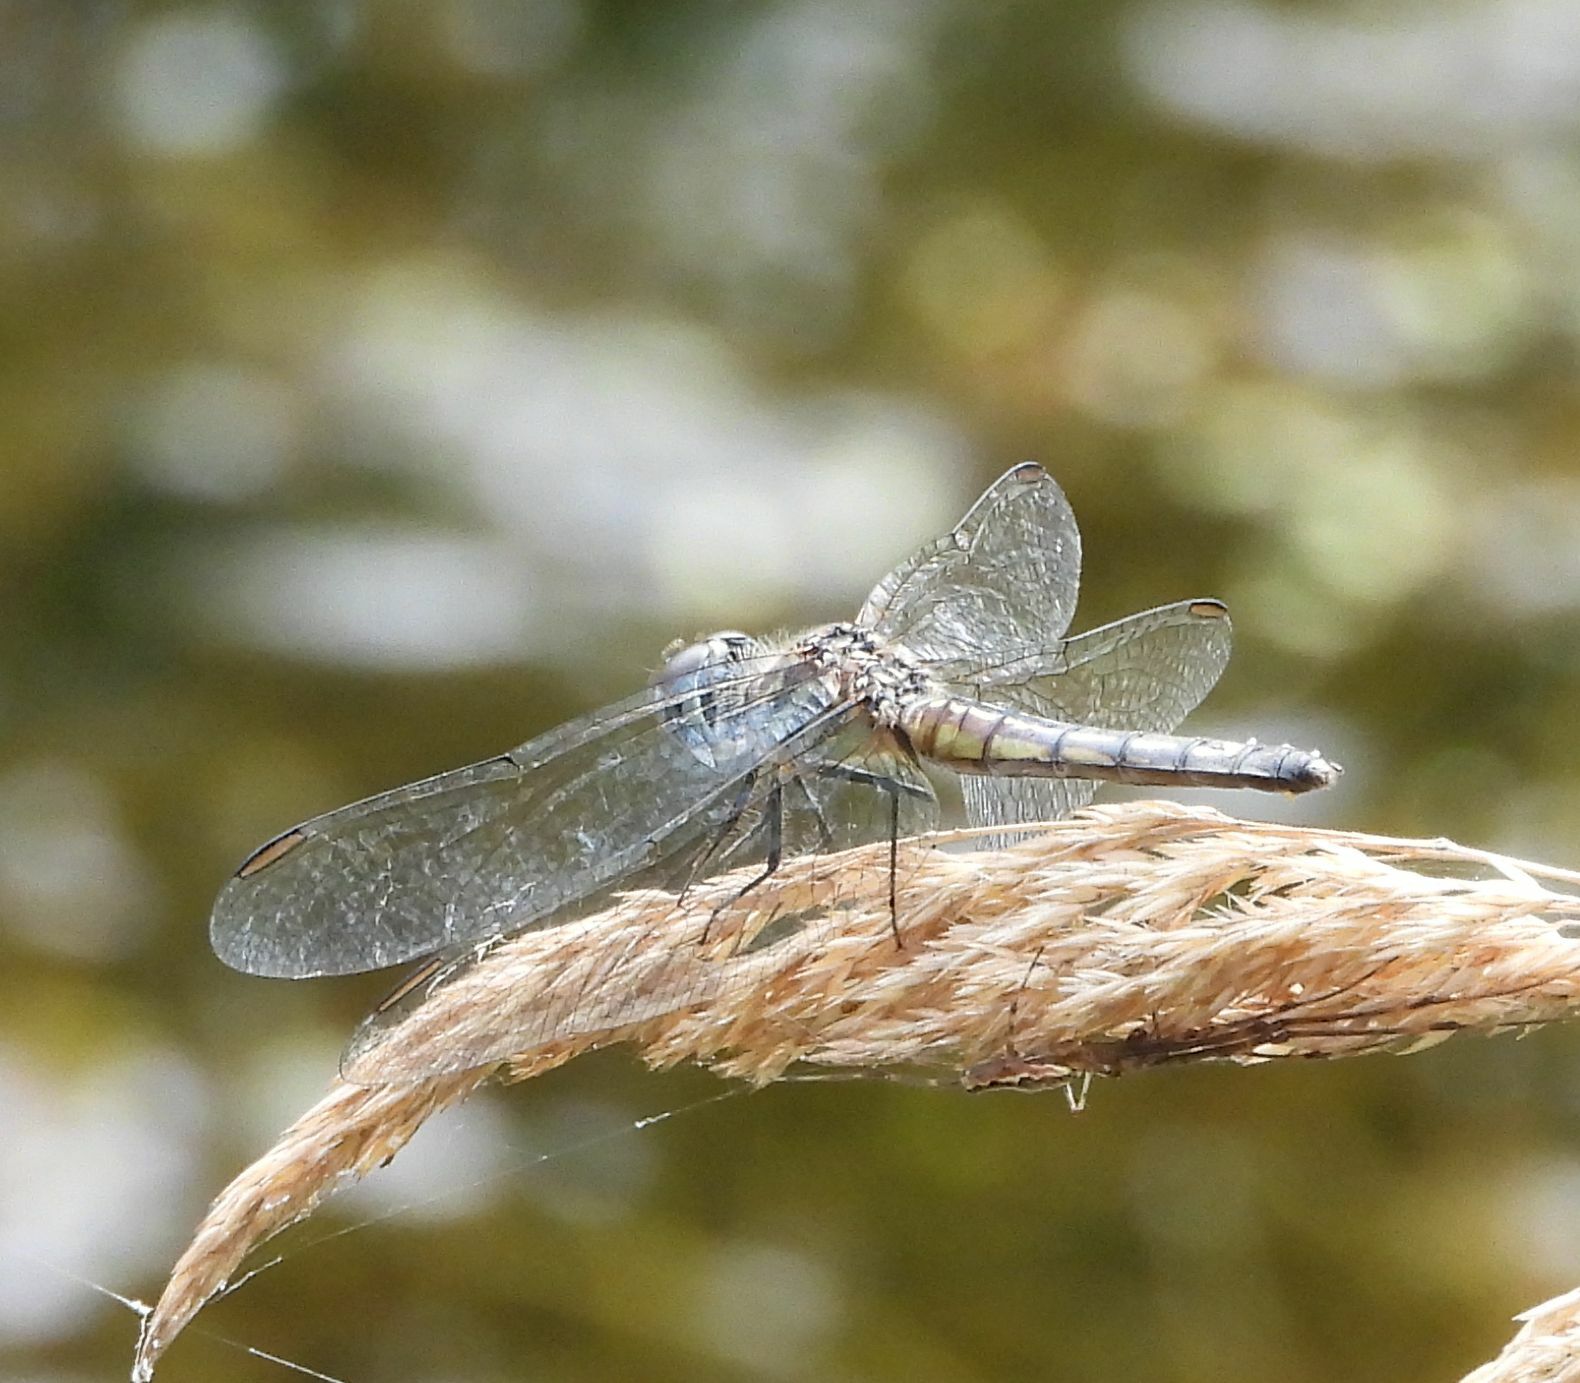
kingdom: Animalia
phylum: Arthropoda
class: Insecta
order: Odonata
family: Libellulidae
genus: Pachydiplax
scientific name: Pachydiplax longipennis
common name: Blue dasher
